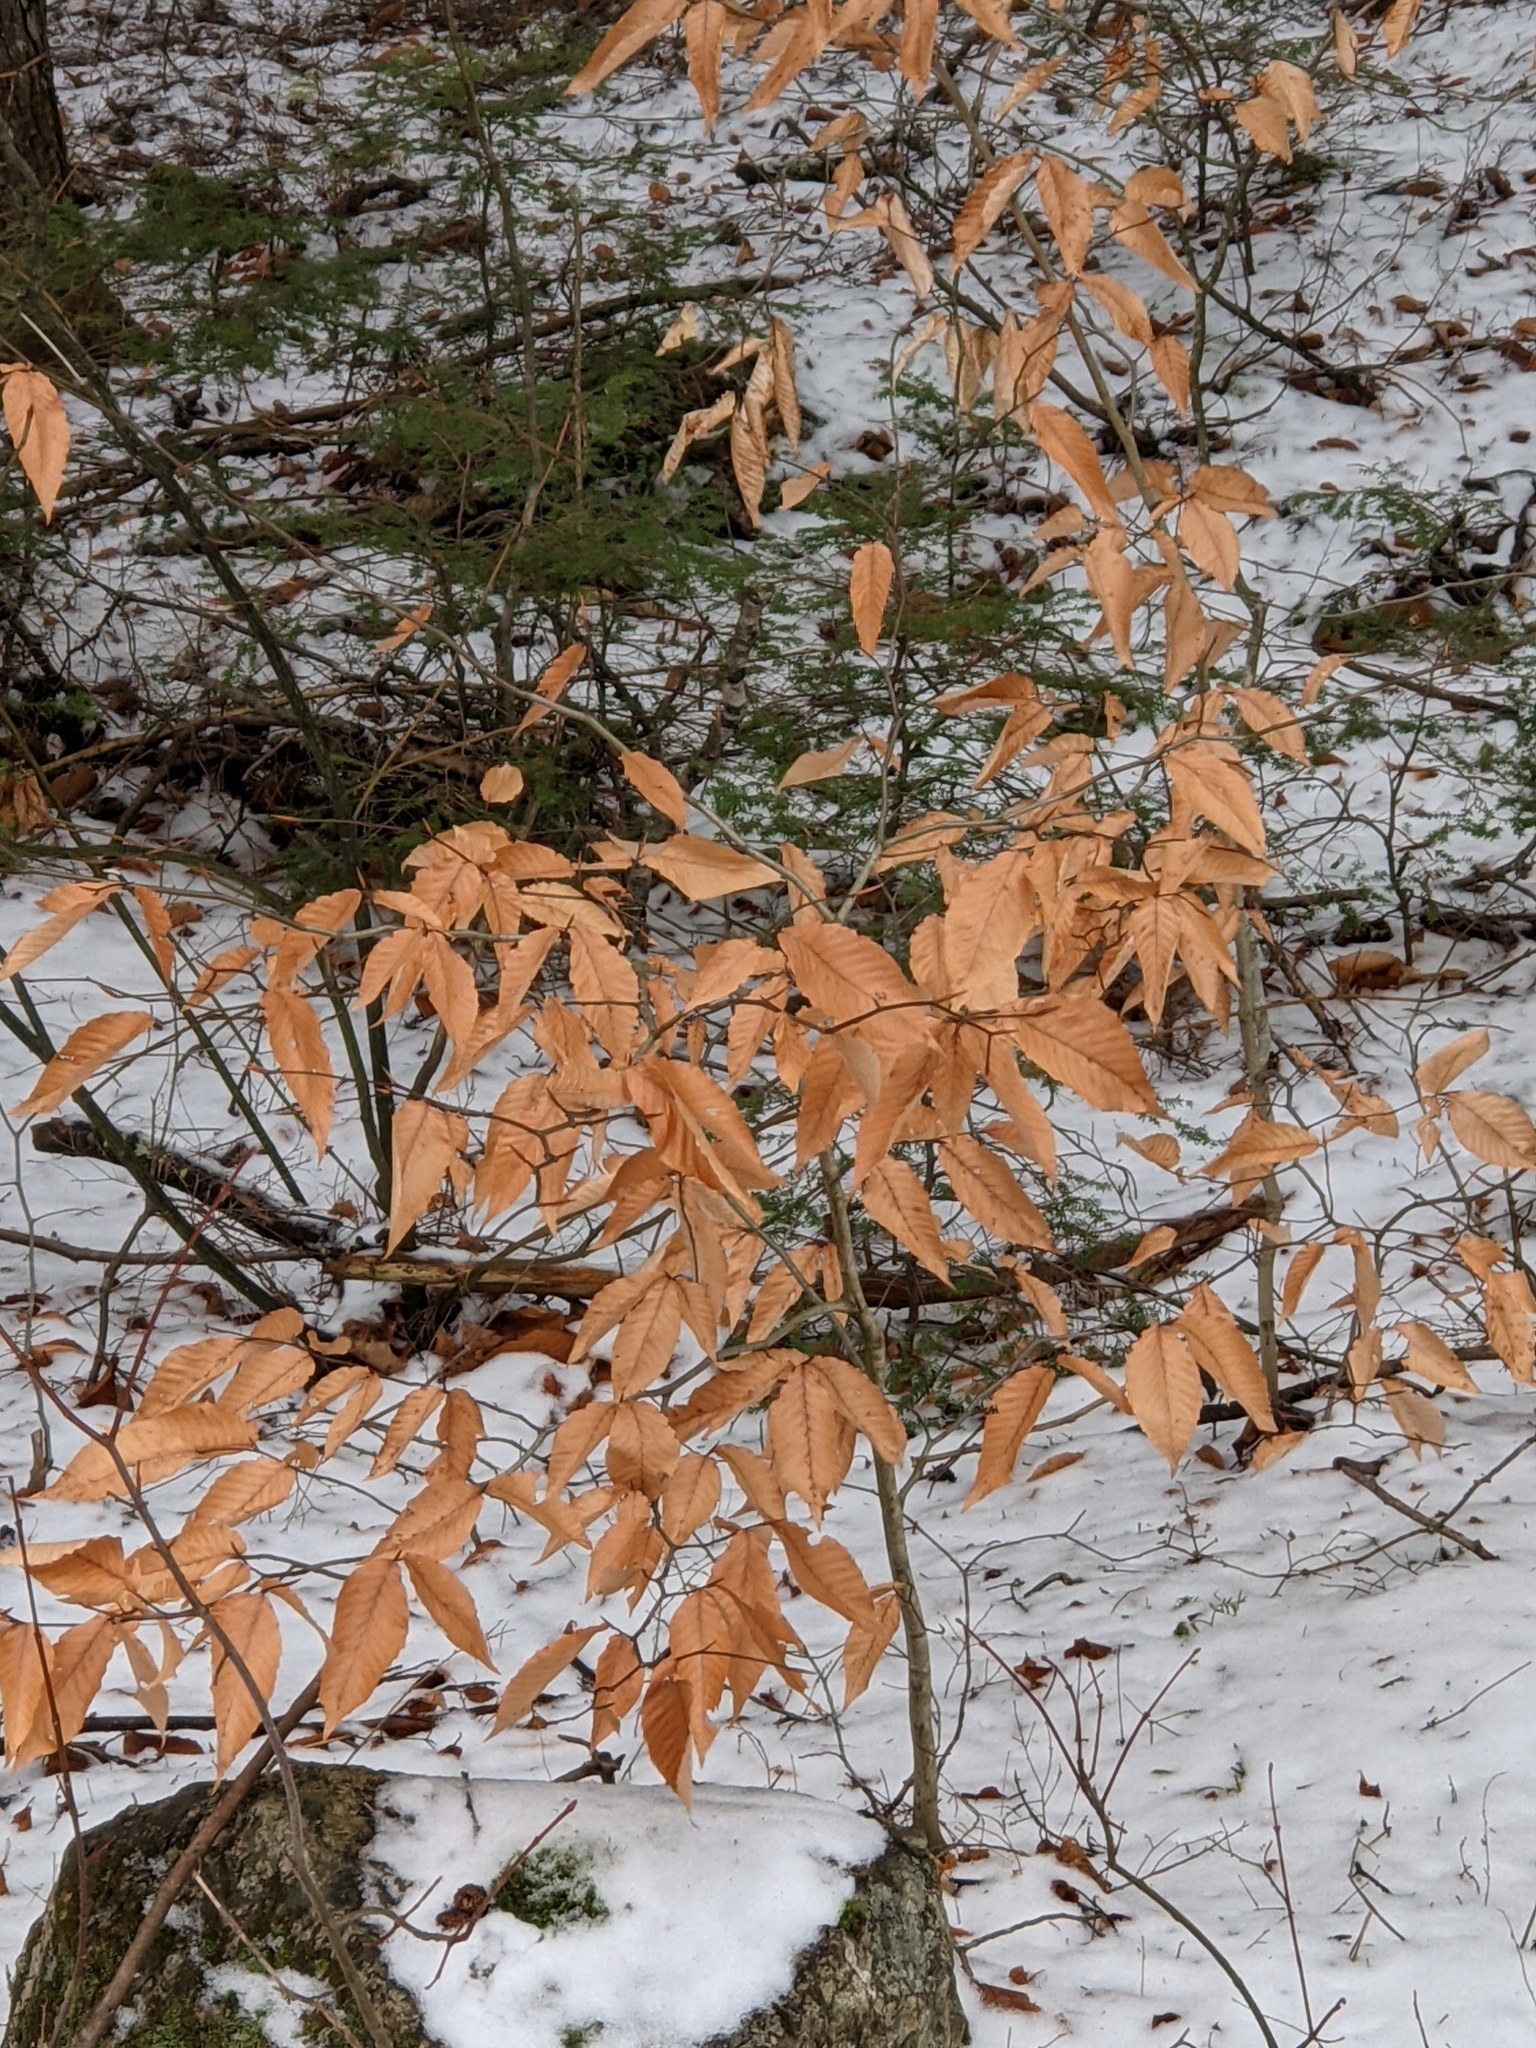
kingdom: Plantae
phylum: Tracheophyta
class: Magnoliopsida
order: Fagales
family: Fagaceae
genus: Fagus
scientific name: Fagus grandifolia
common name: American beech
